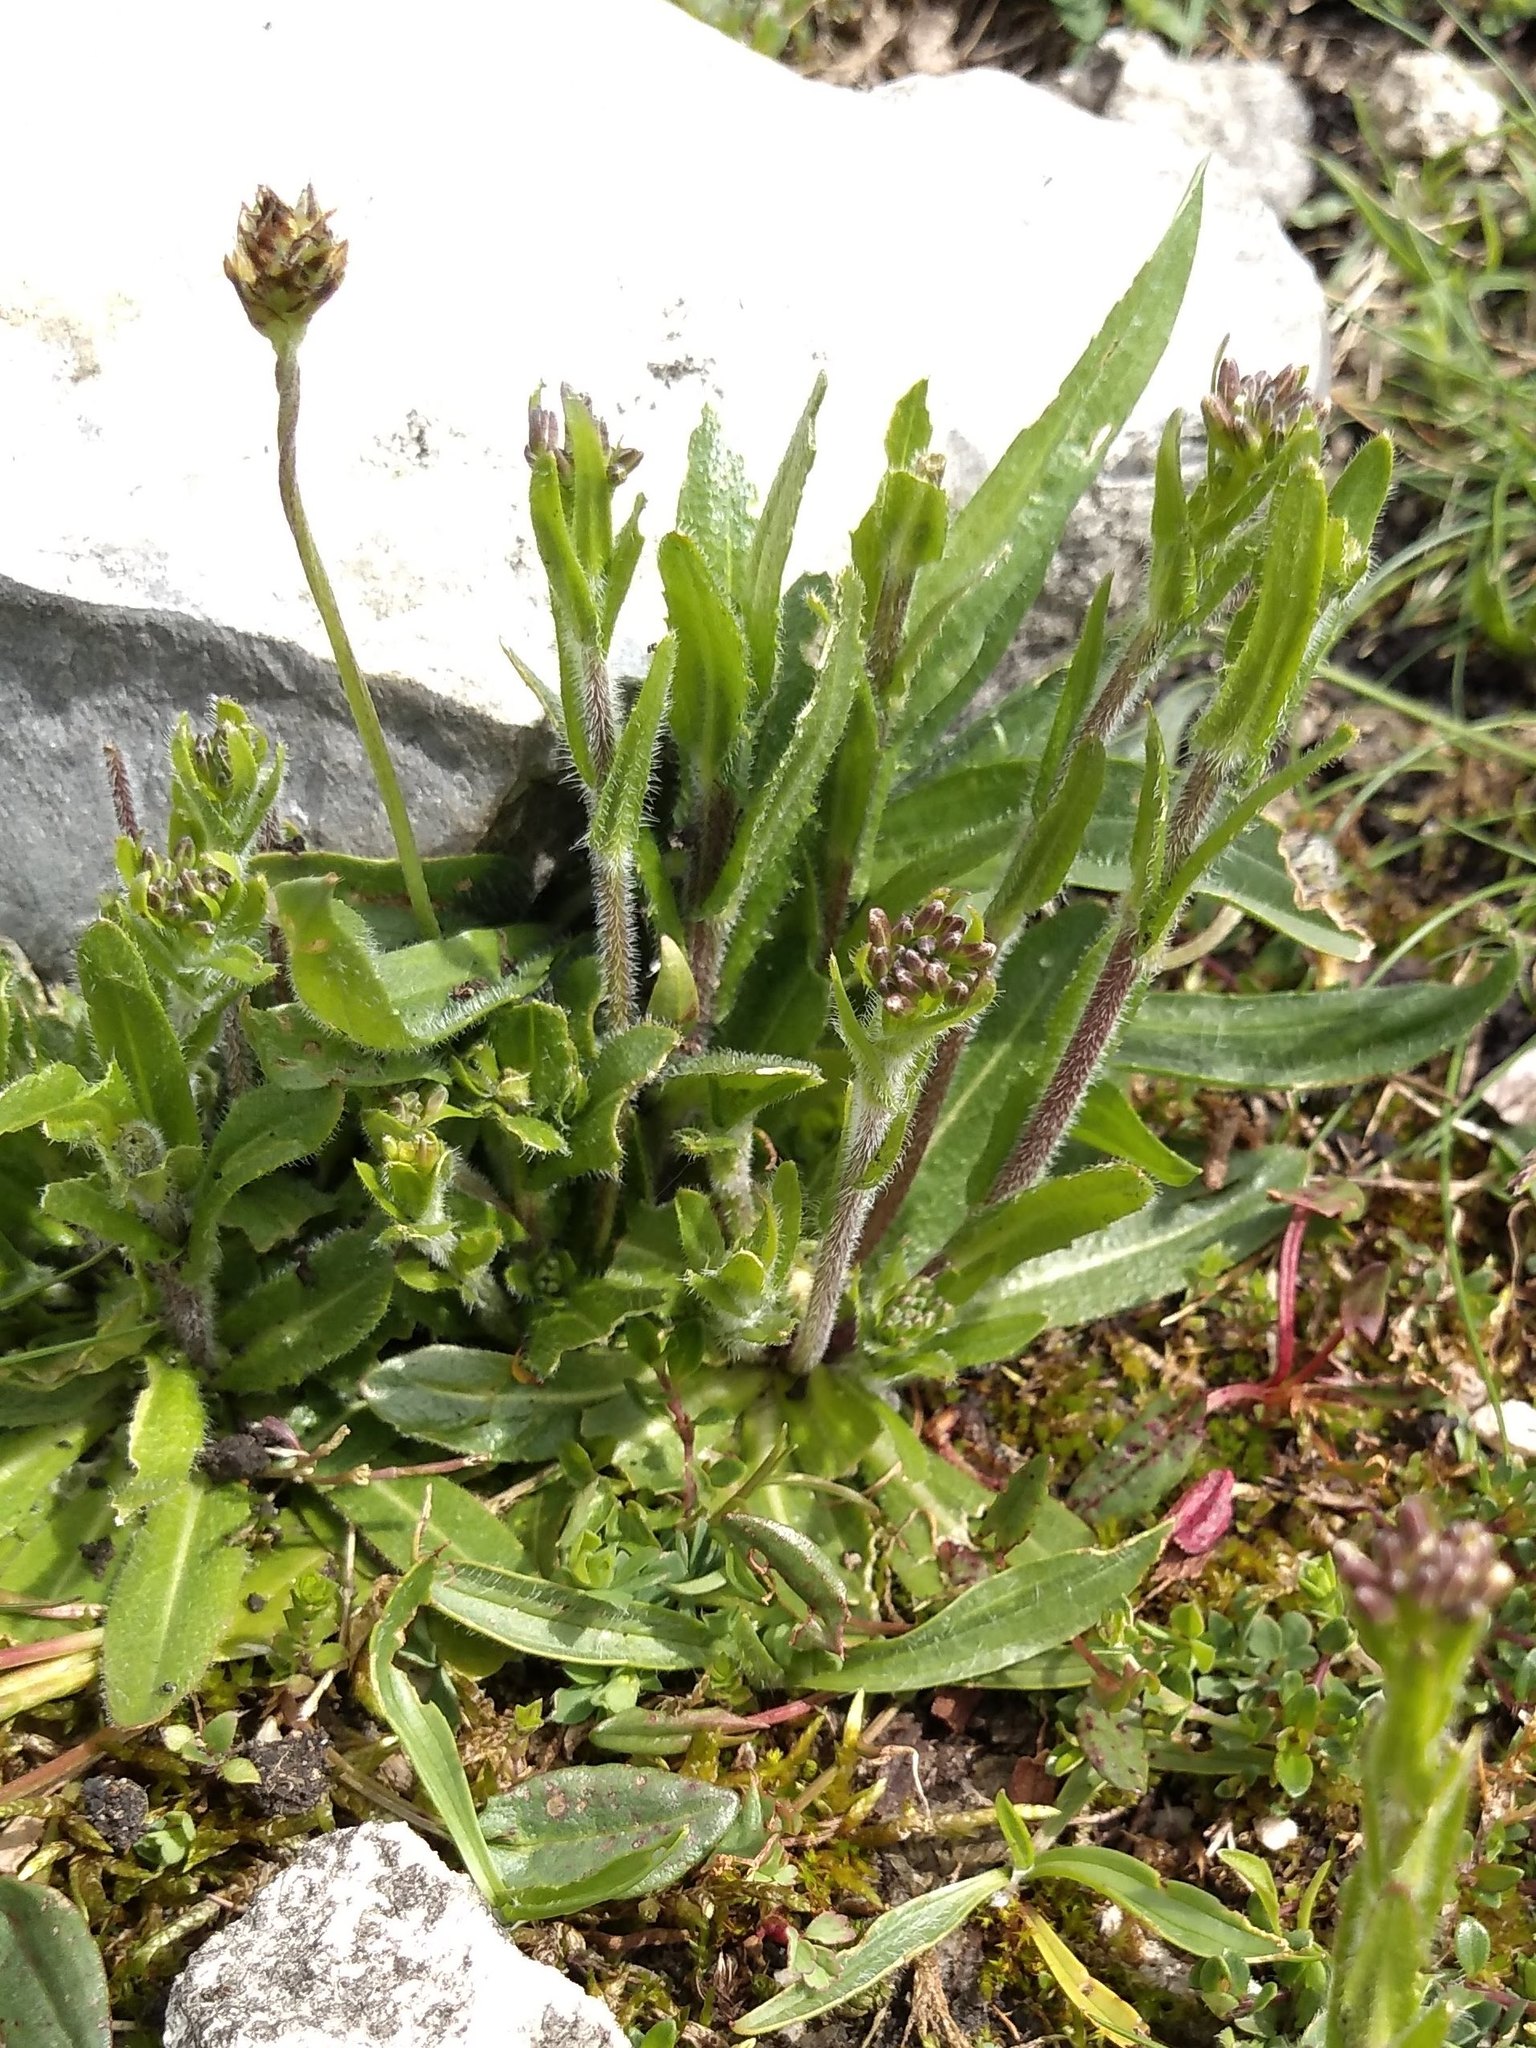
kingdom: Plantae
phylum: Tracheophyta
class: Magnoliopsida
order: Brassicales
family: Brassicaceae
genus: Arabis
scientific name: Arabis hirsuta
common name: Hairy rock-cress
